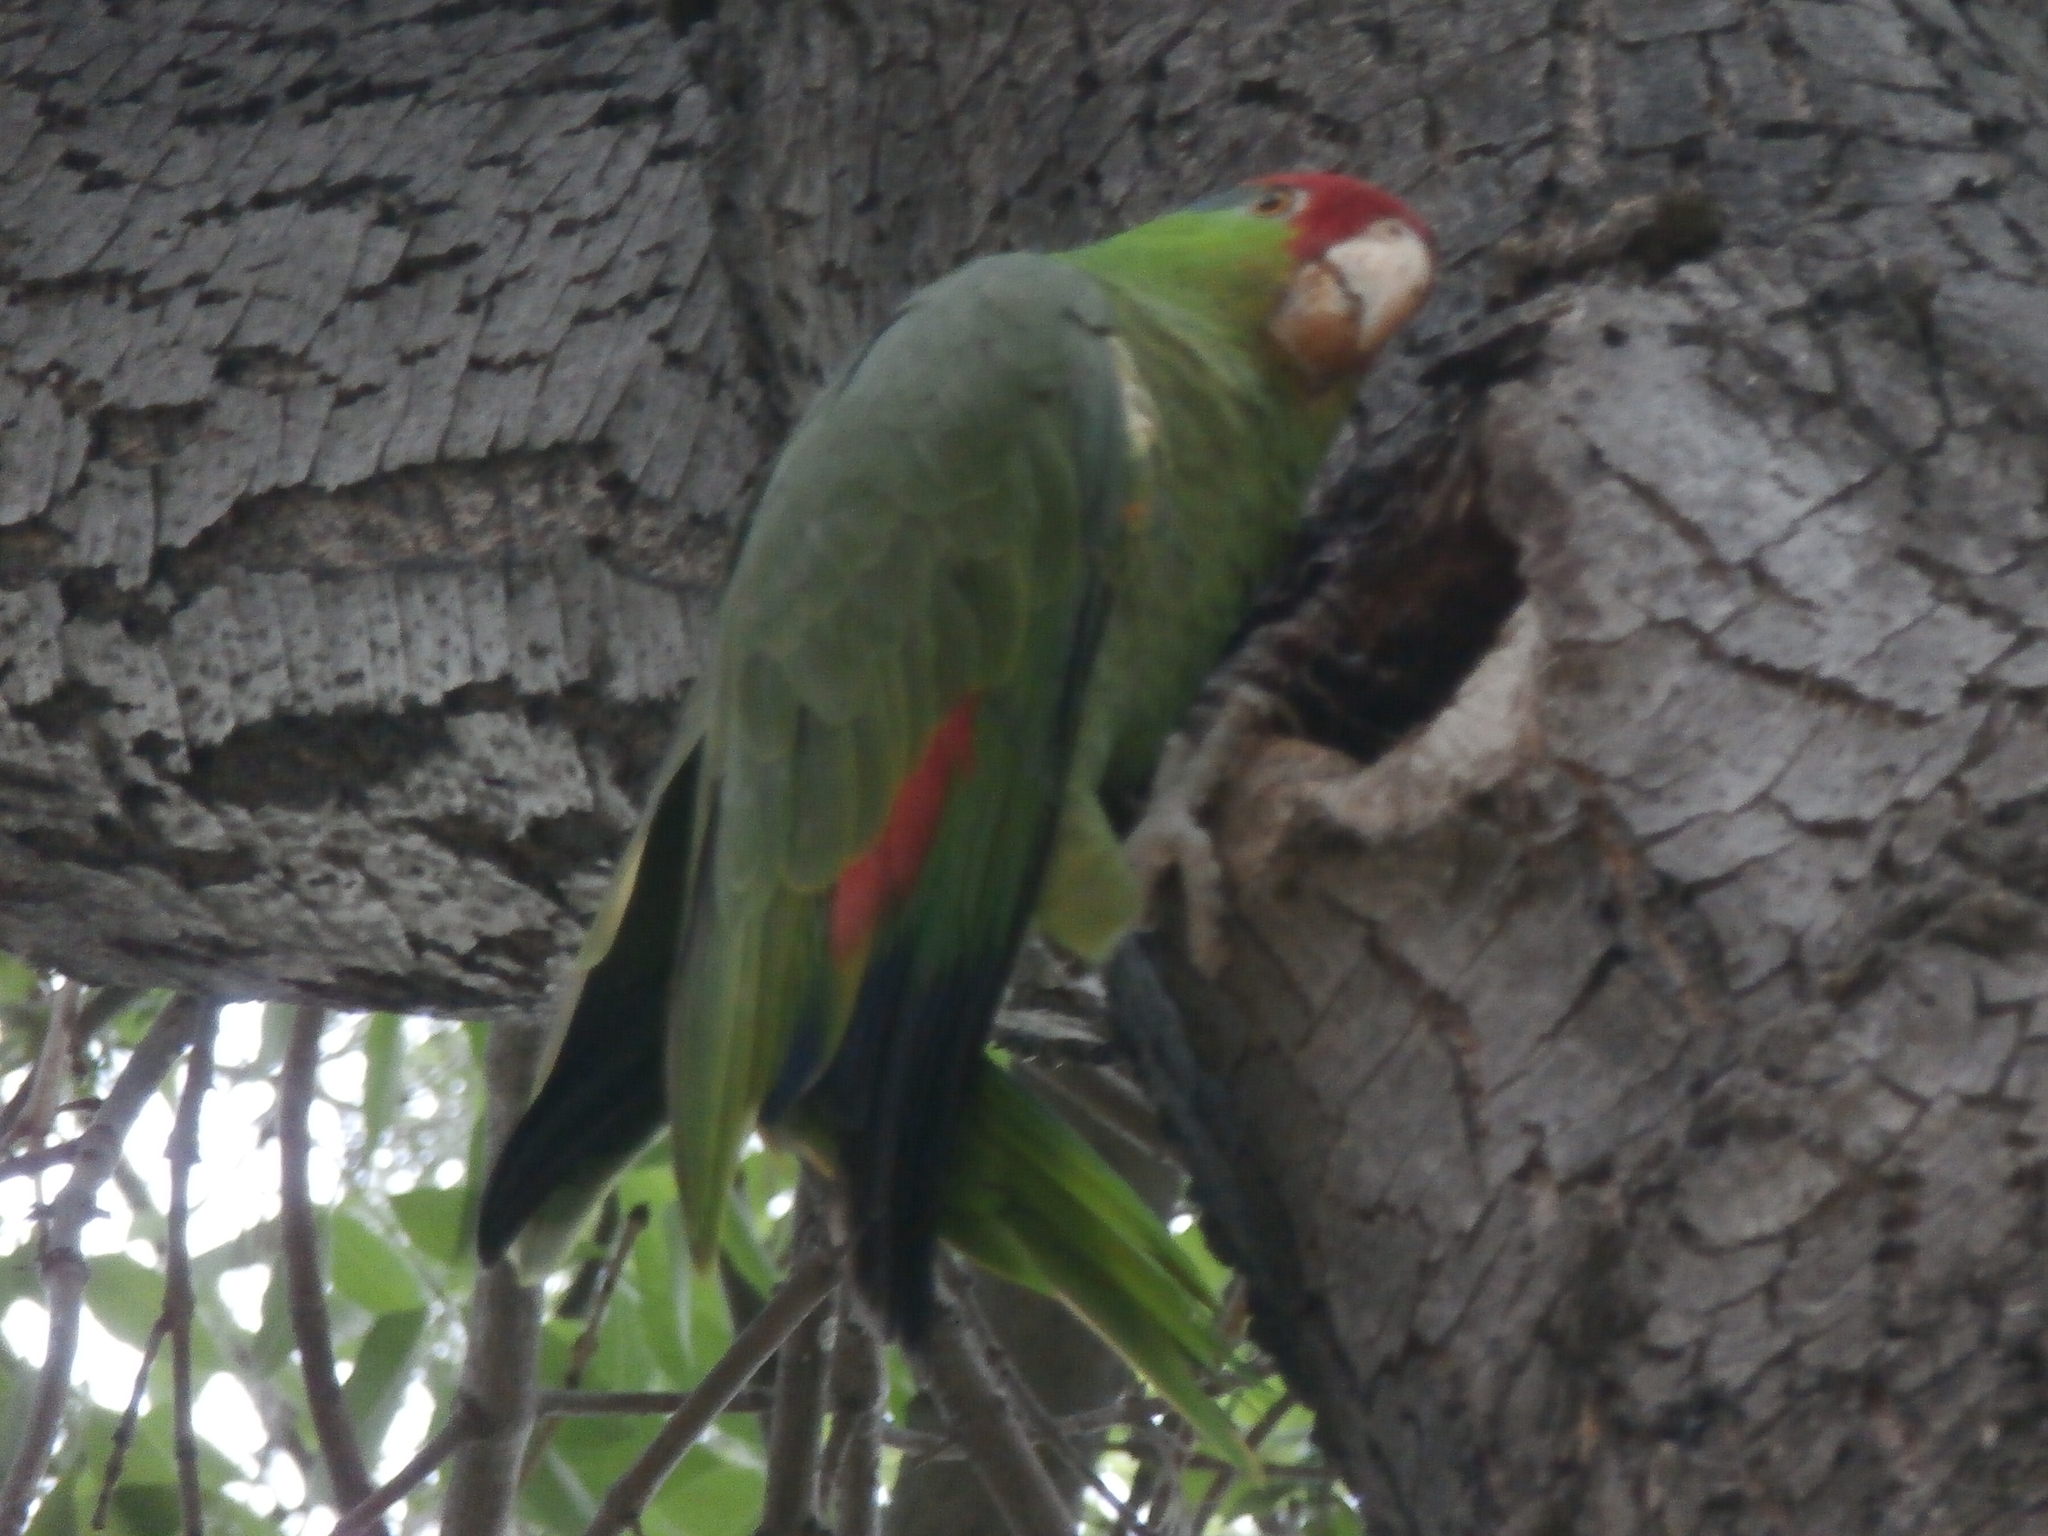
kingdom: Animalia
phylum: Chordata
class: Aves
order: Psittaciformes
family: Psittacidae
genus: Amazona
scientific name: Amazona viridigenalis
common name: Red-crowned amazon
